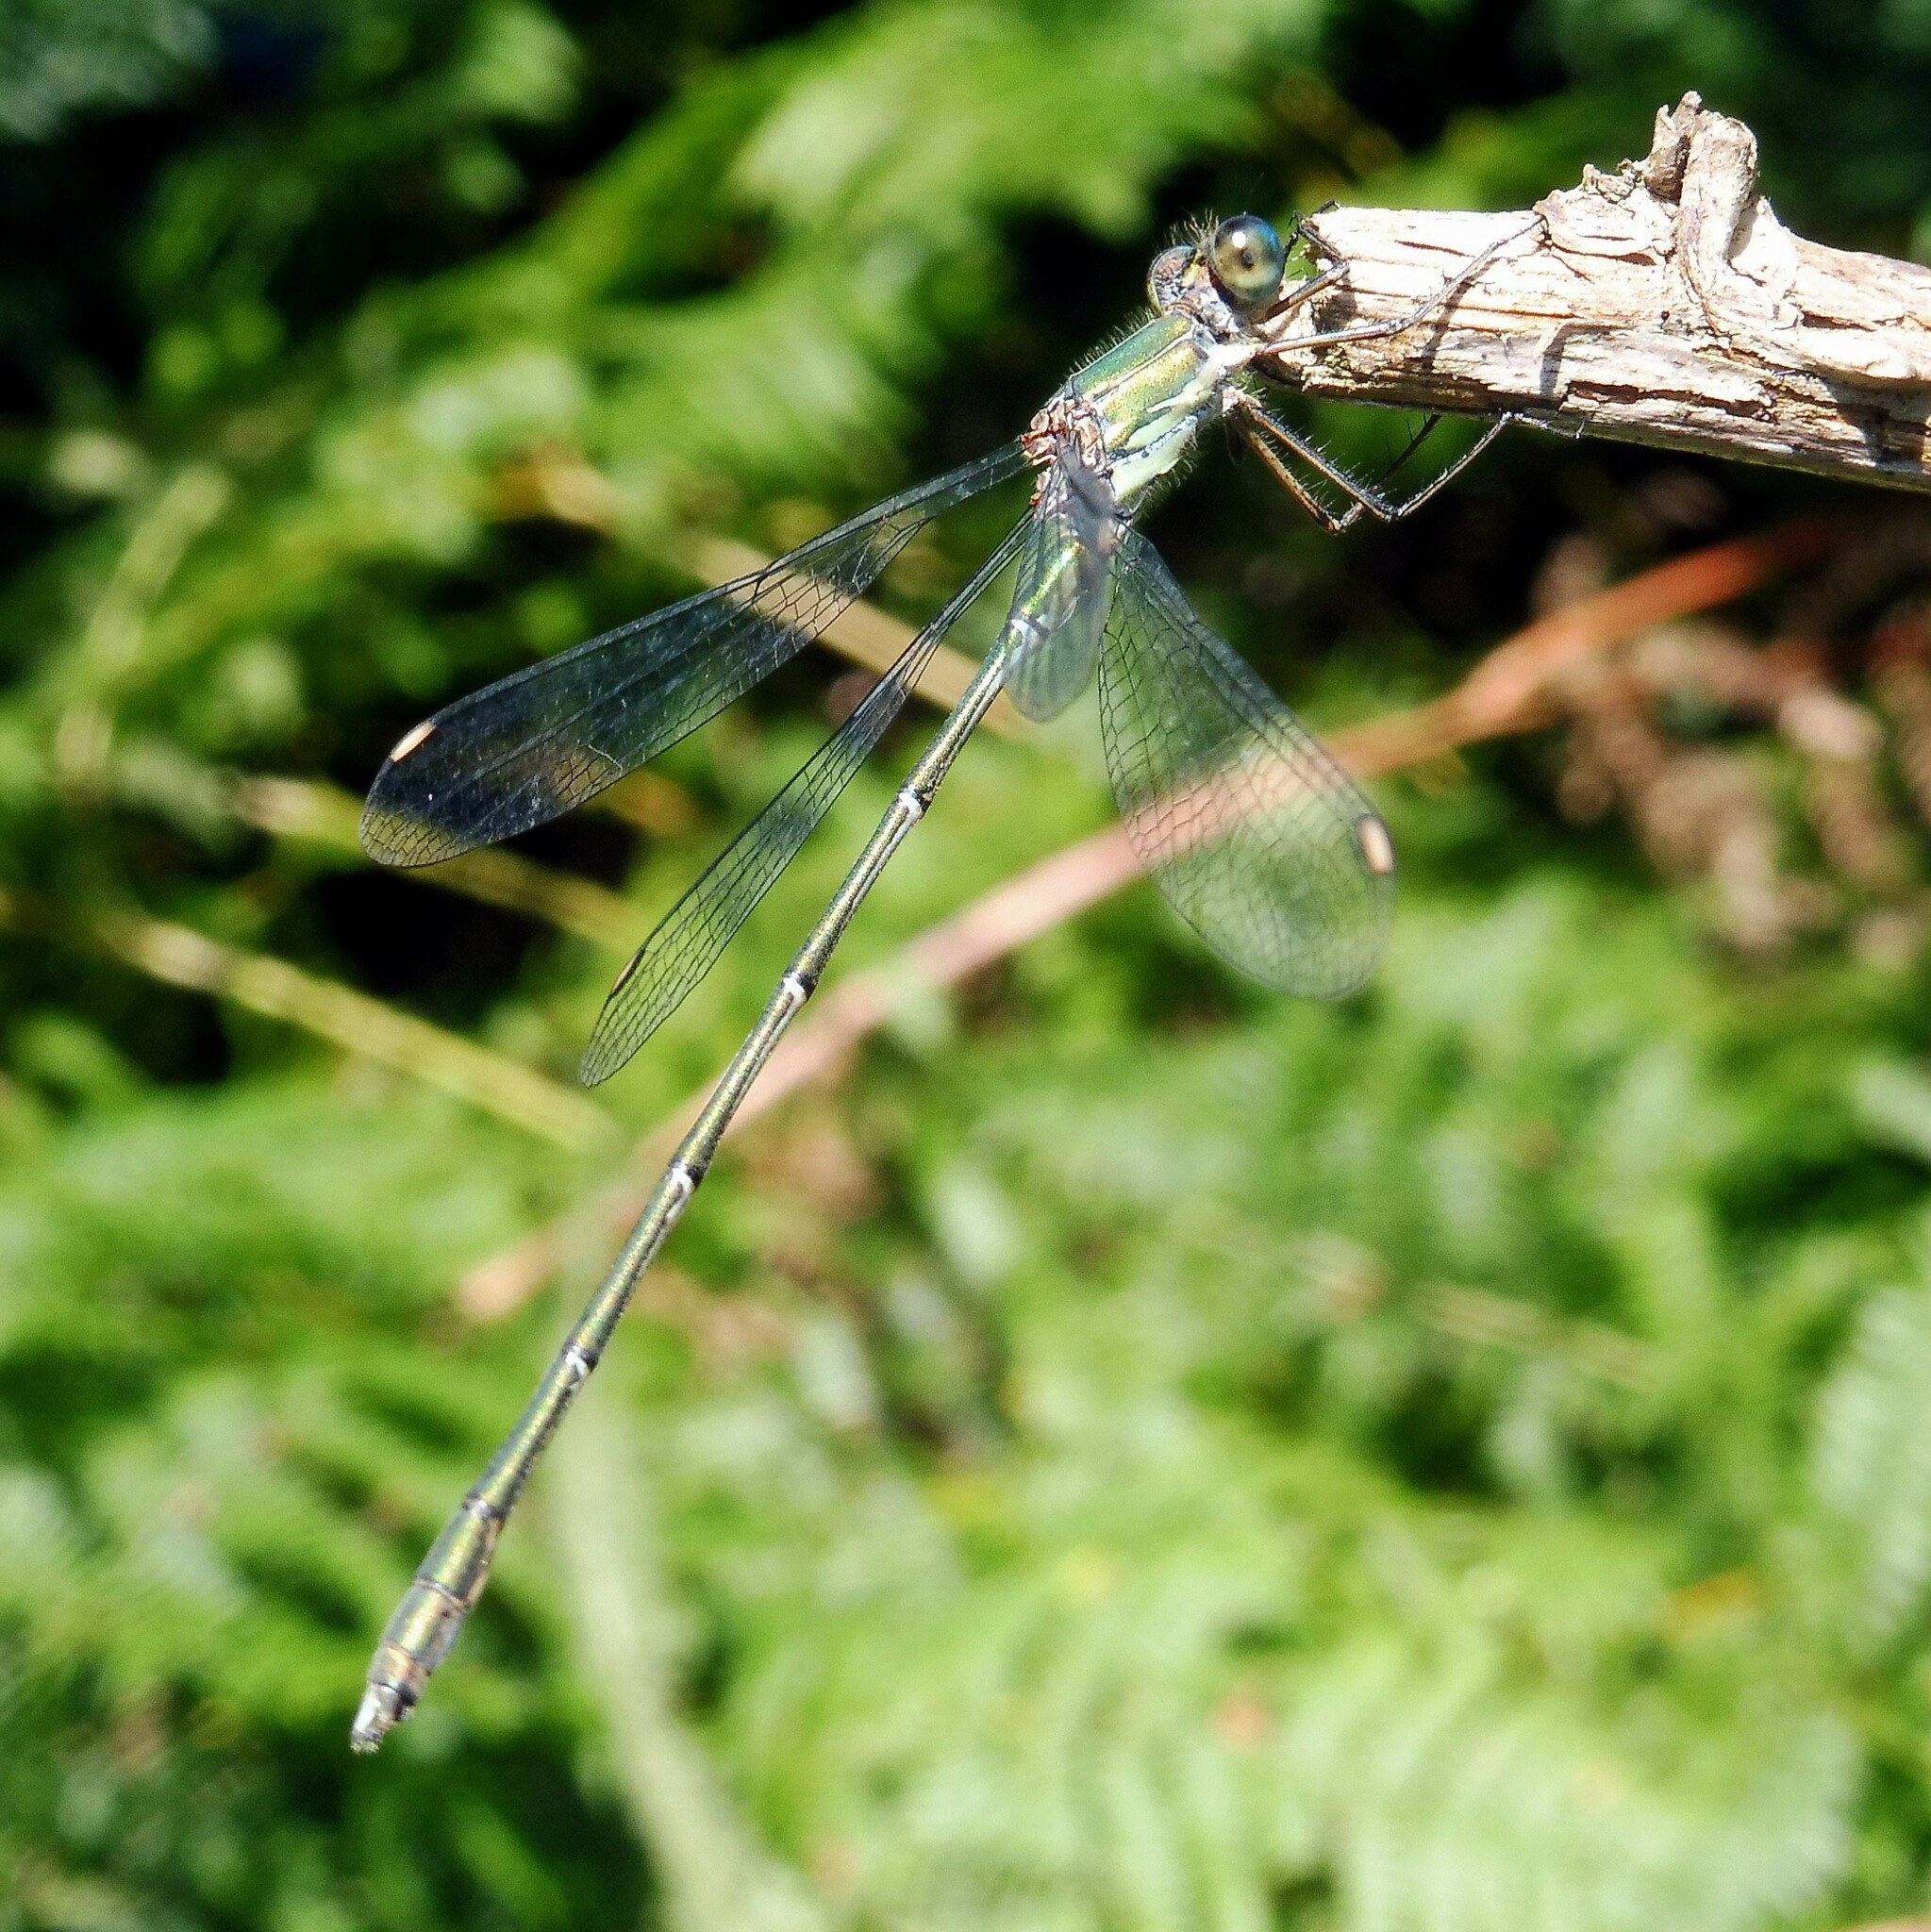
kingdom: Animalia
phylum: Arthropoda
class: Insecta
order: Odonata
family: Lestidae
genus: Chalcolestes
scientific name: Chalcolestes viridis
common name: Green emerald damselfly
